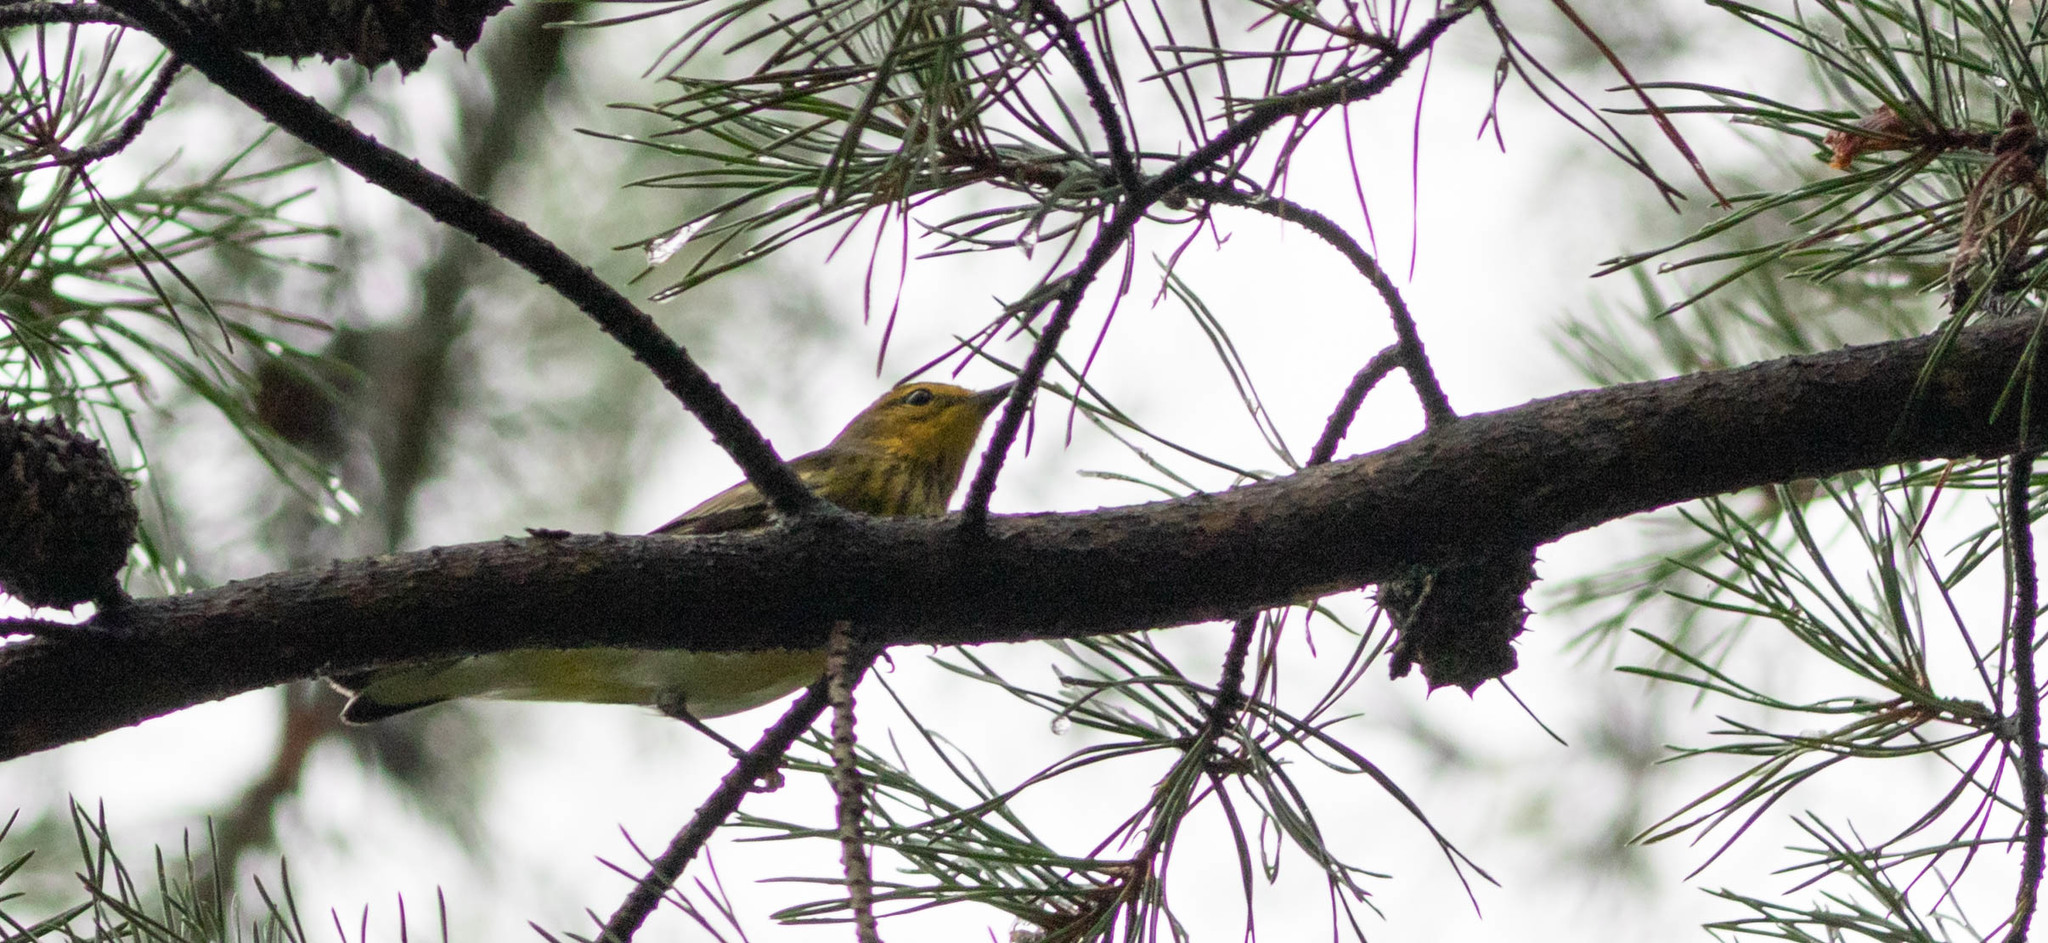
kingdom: Animalia
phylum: Chordata
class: Aves
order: Passeriformes
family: Parulidae
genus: Setophaga
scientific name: Setophaga tigrina
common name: Cape may warbler
